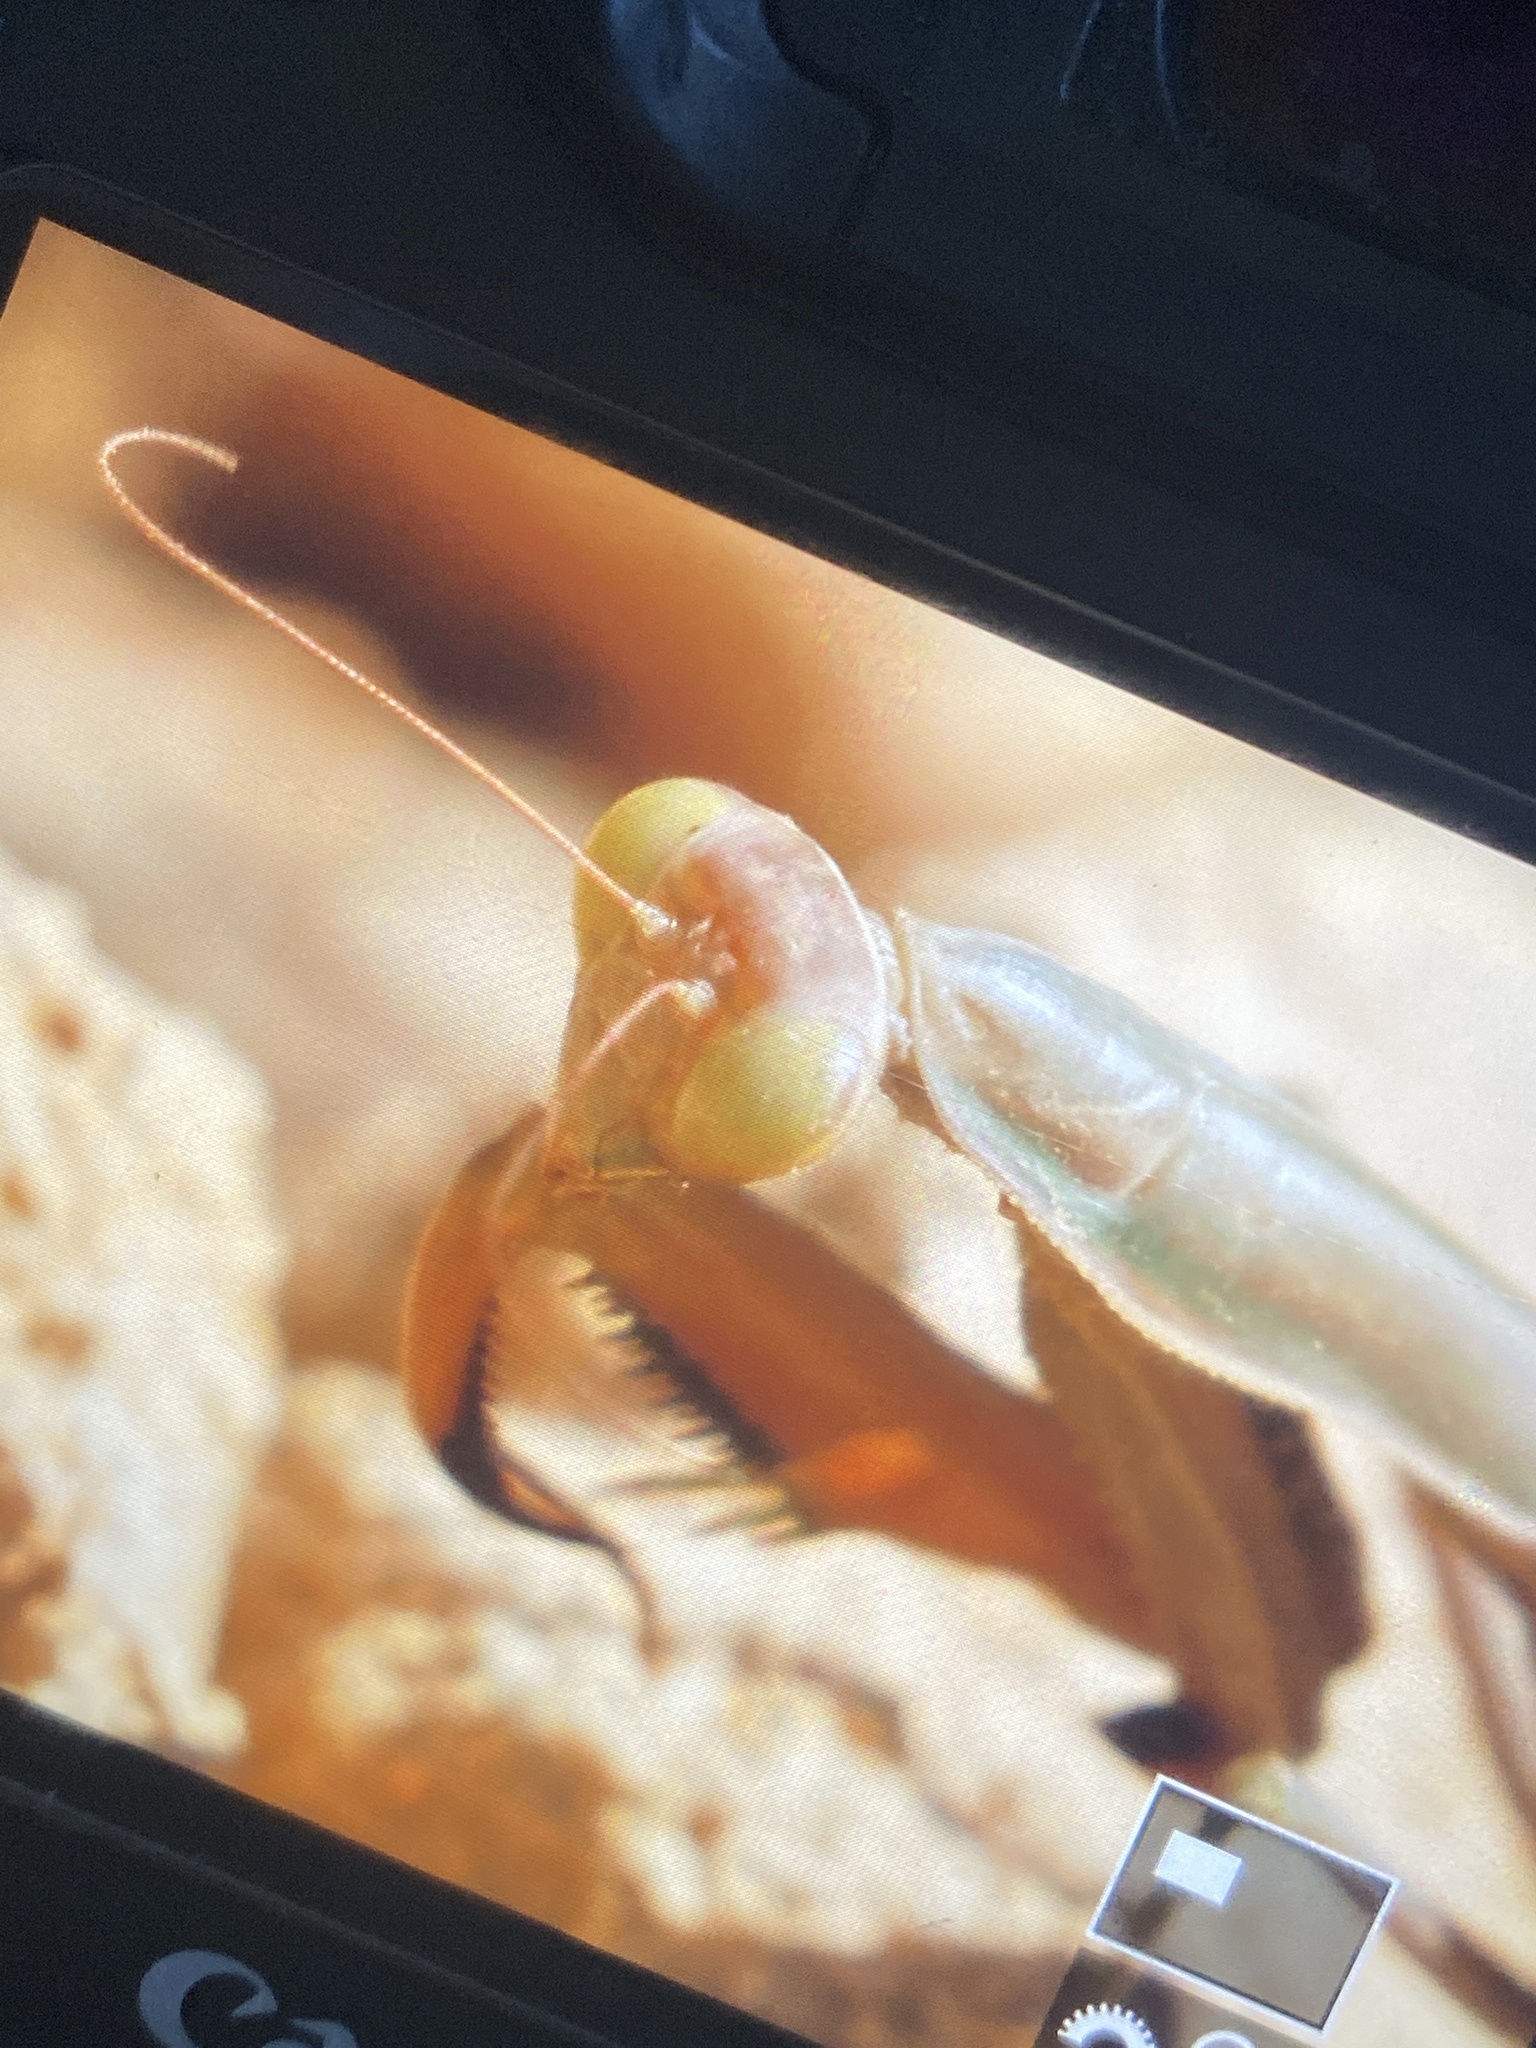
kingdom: Animalia
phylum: Arthropoda
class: Insecta
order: Mantodea
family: Mantidae
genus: Mantis
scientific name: Mantis religiosa
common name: Praying mantis
